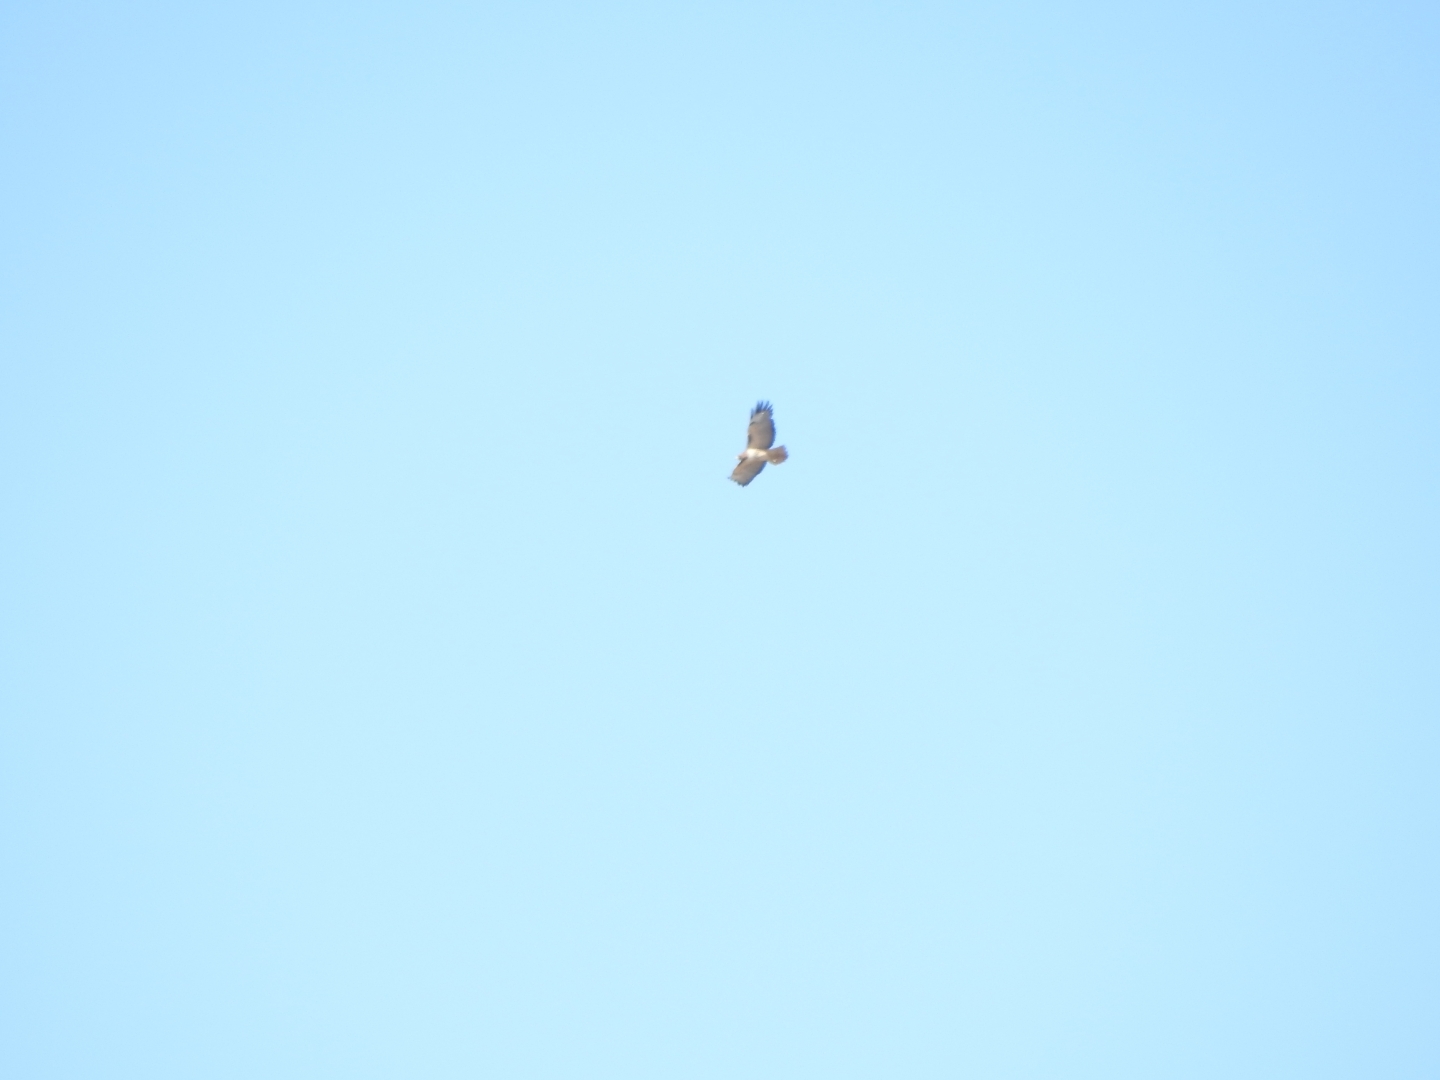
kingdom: Animalia
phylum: Chordata
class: Aves
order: Accipitriformes
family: Accipitridae
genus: Buteo
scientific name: Buteo jamaicensis
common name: Red-tailed hawk
